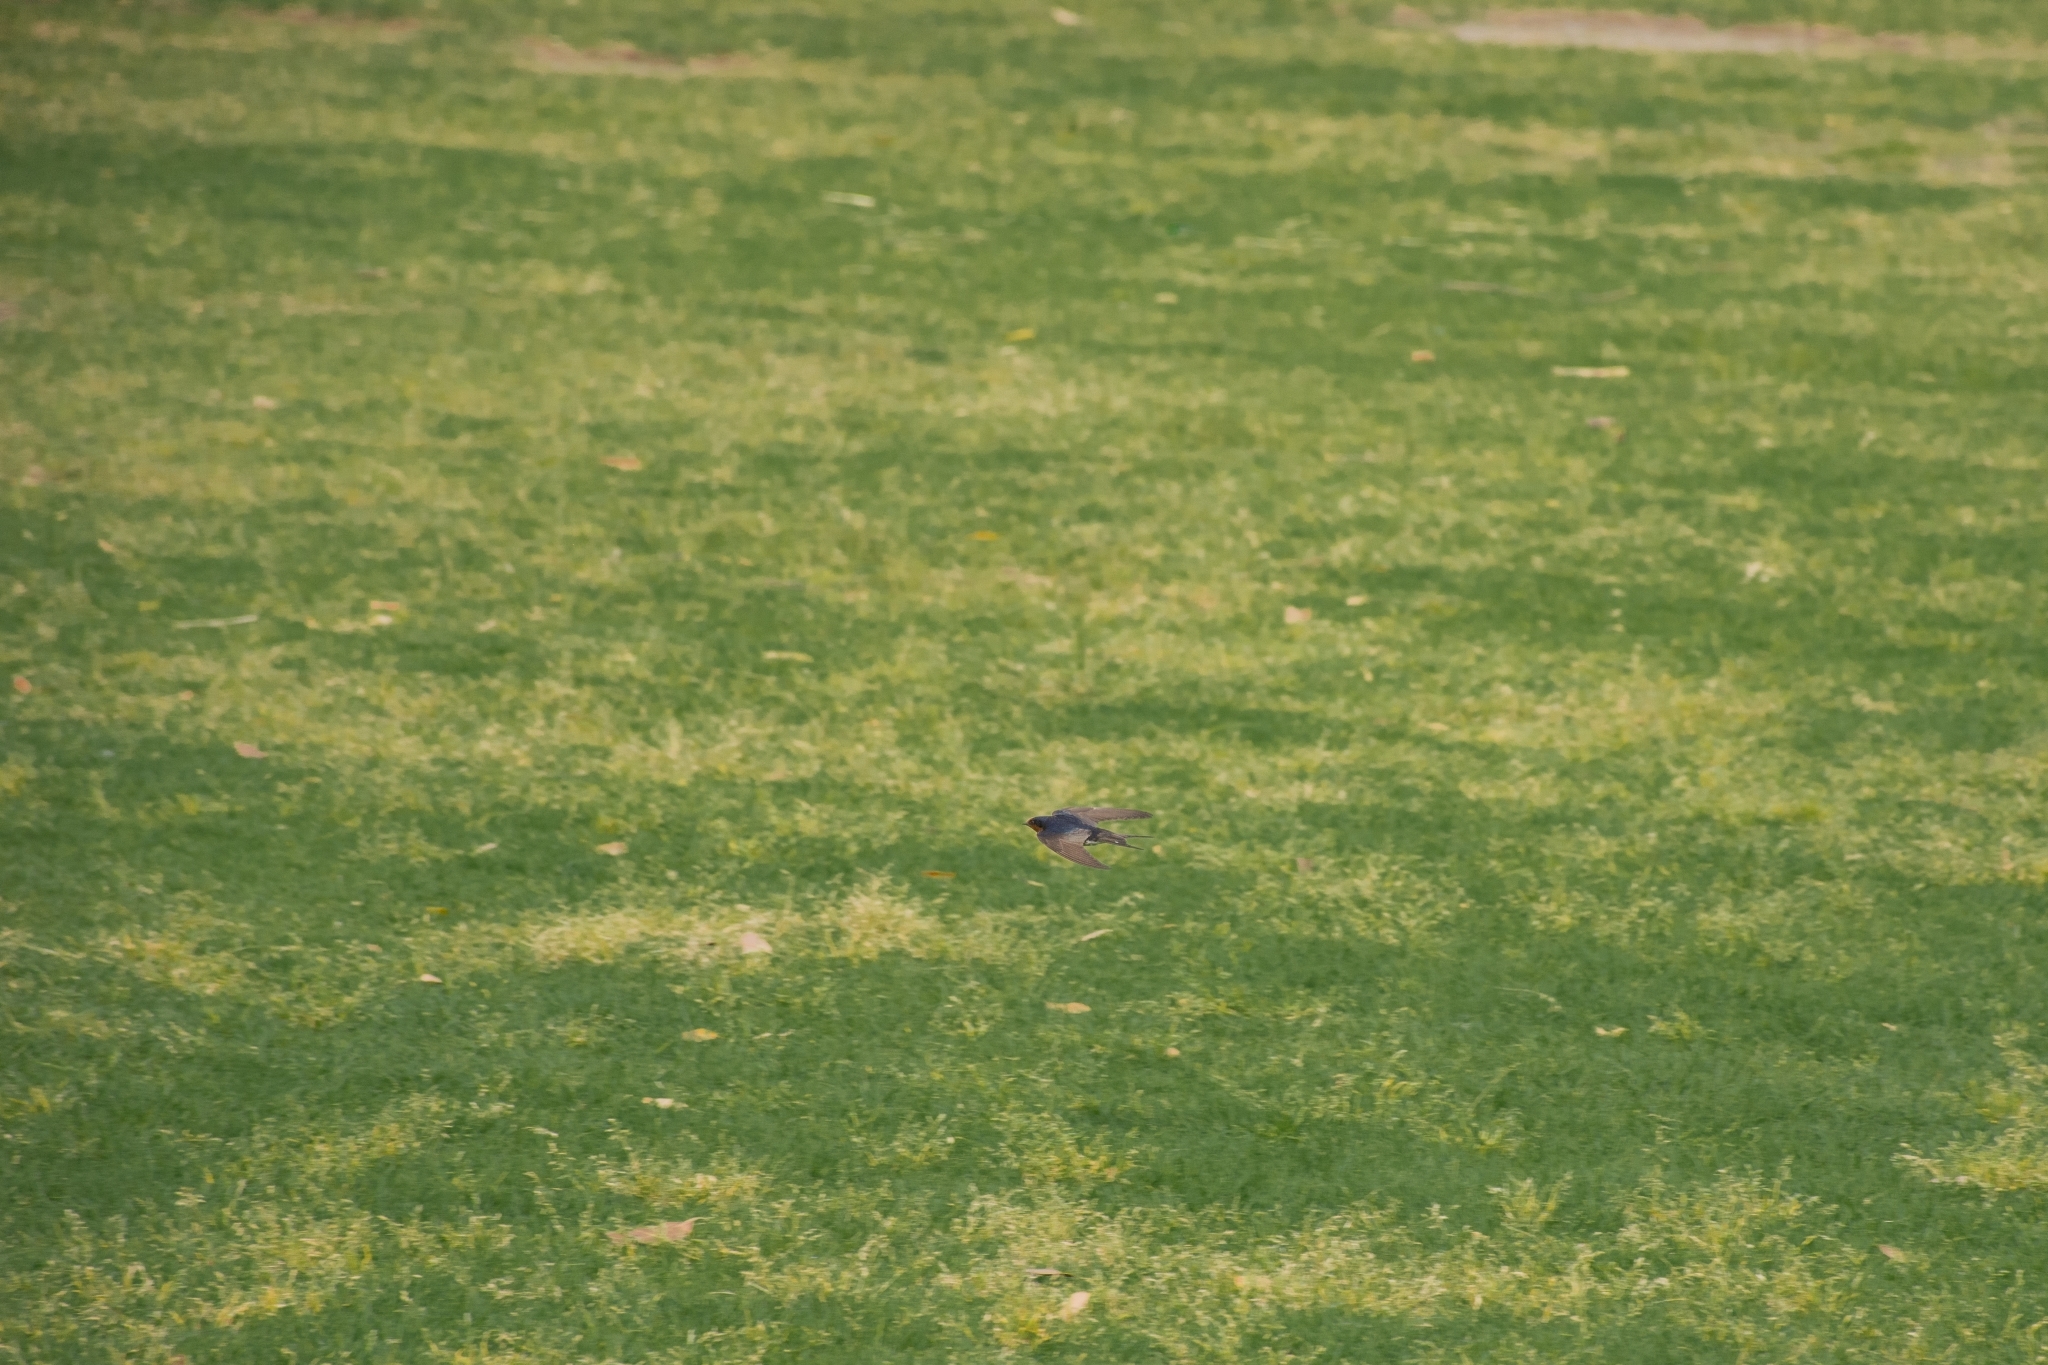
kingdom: Animalia
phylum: Chordata
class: Aves
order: Passeriformes
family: Hirundinidae
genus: Hirundo
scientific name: Hirundo neoxena
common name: Welcome swallow
